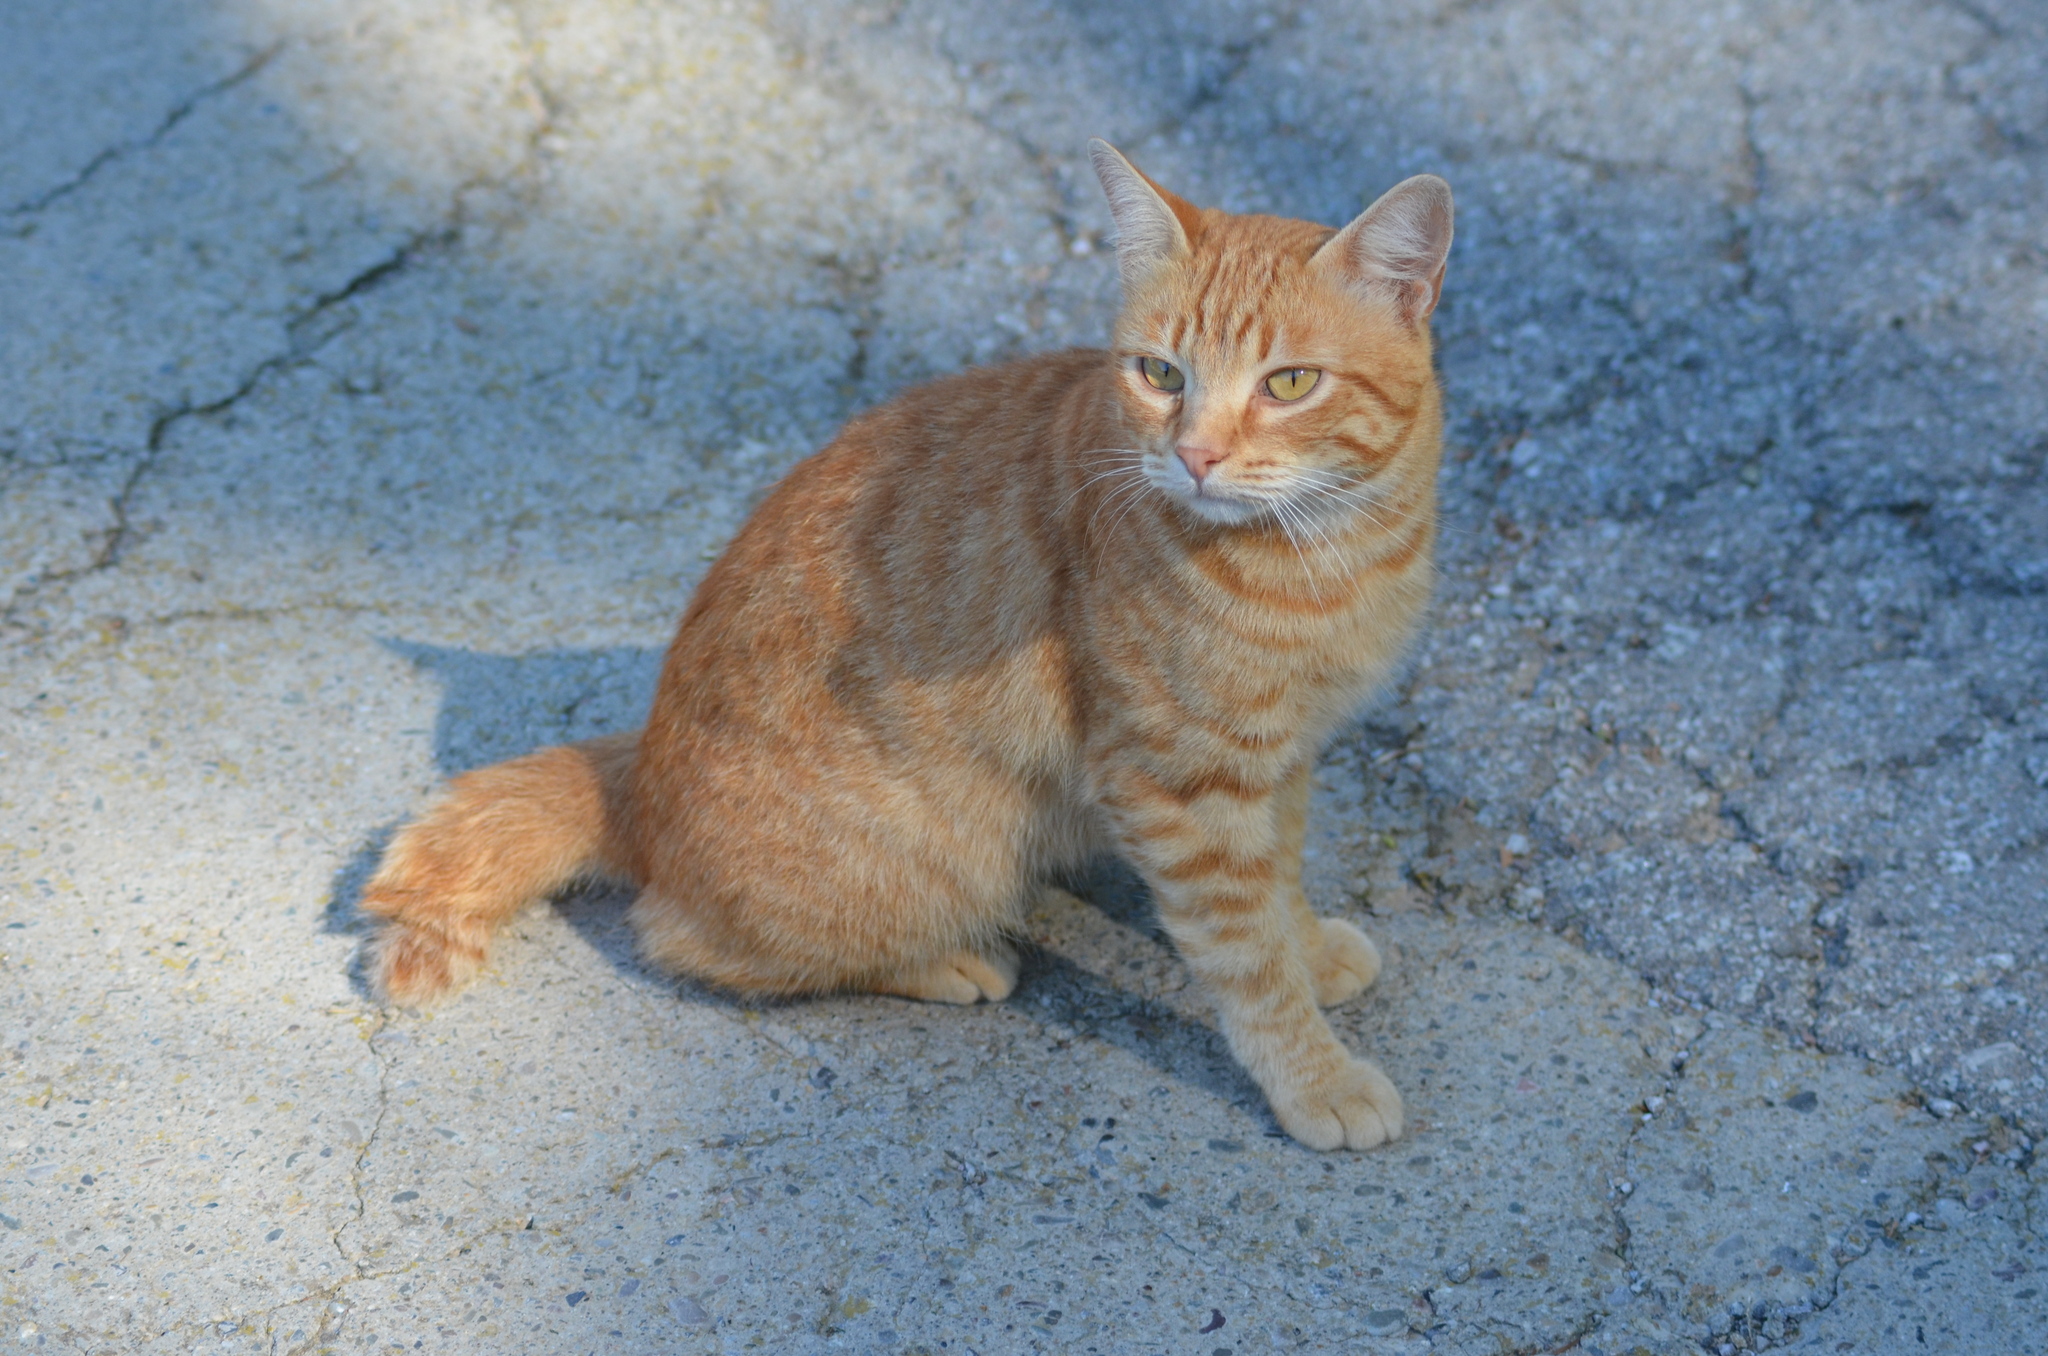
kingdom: Animalia
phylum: Chordata
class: Mammalia
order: Carnivora
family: Felidae
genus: Felis
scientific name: Felis catus
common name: Domestic cat
